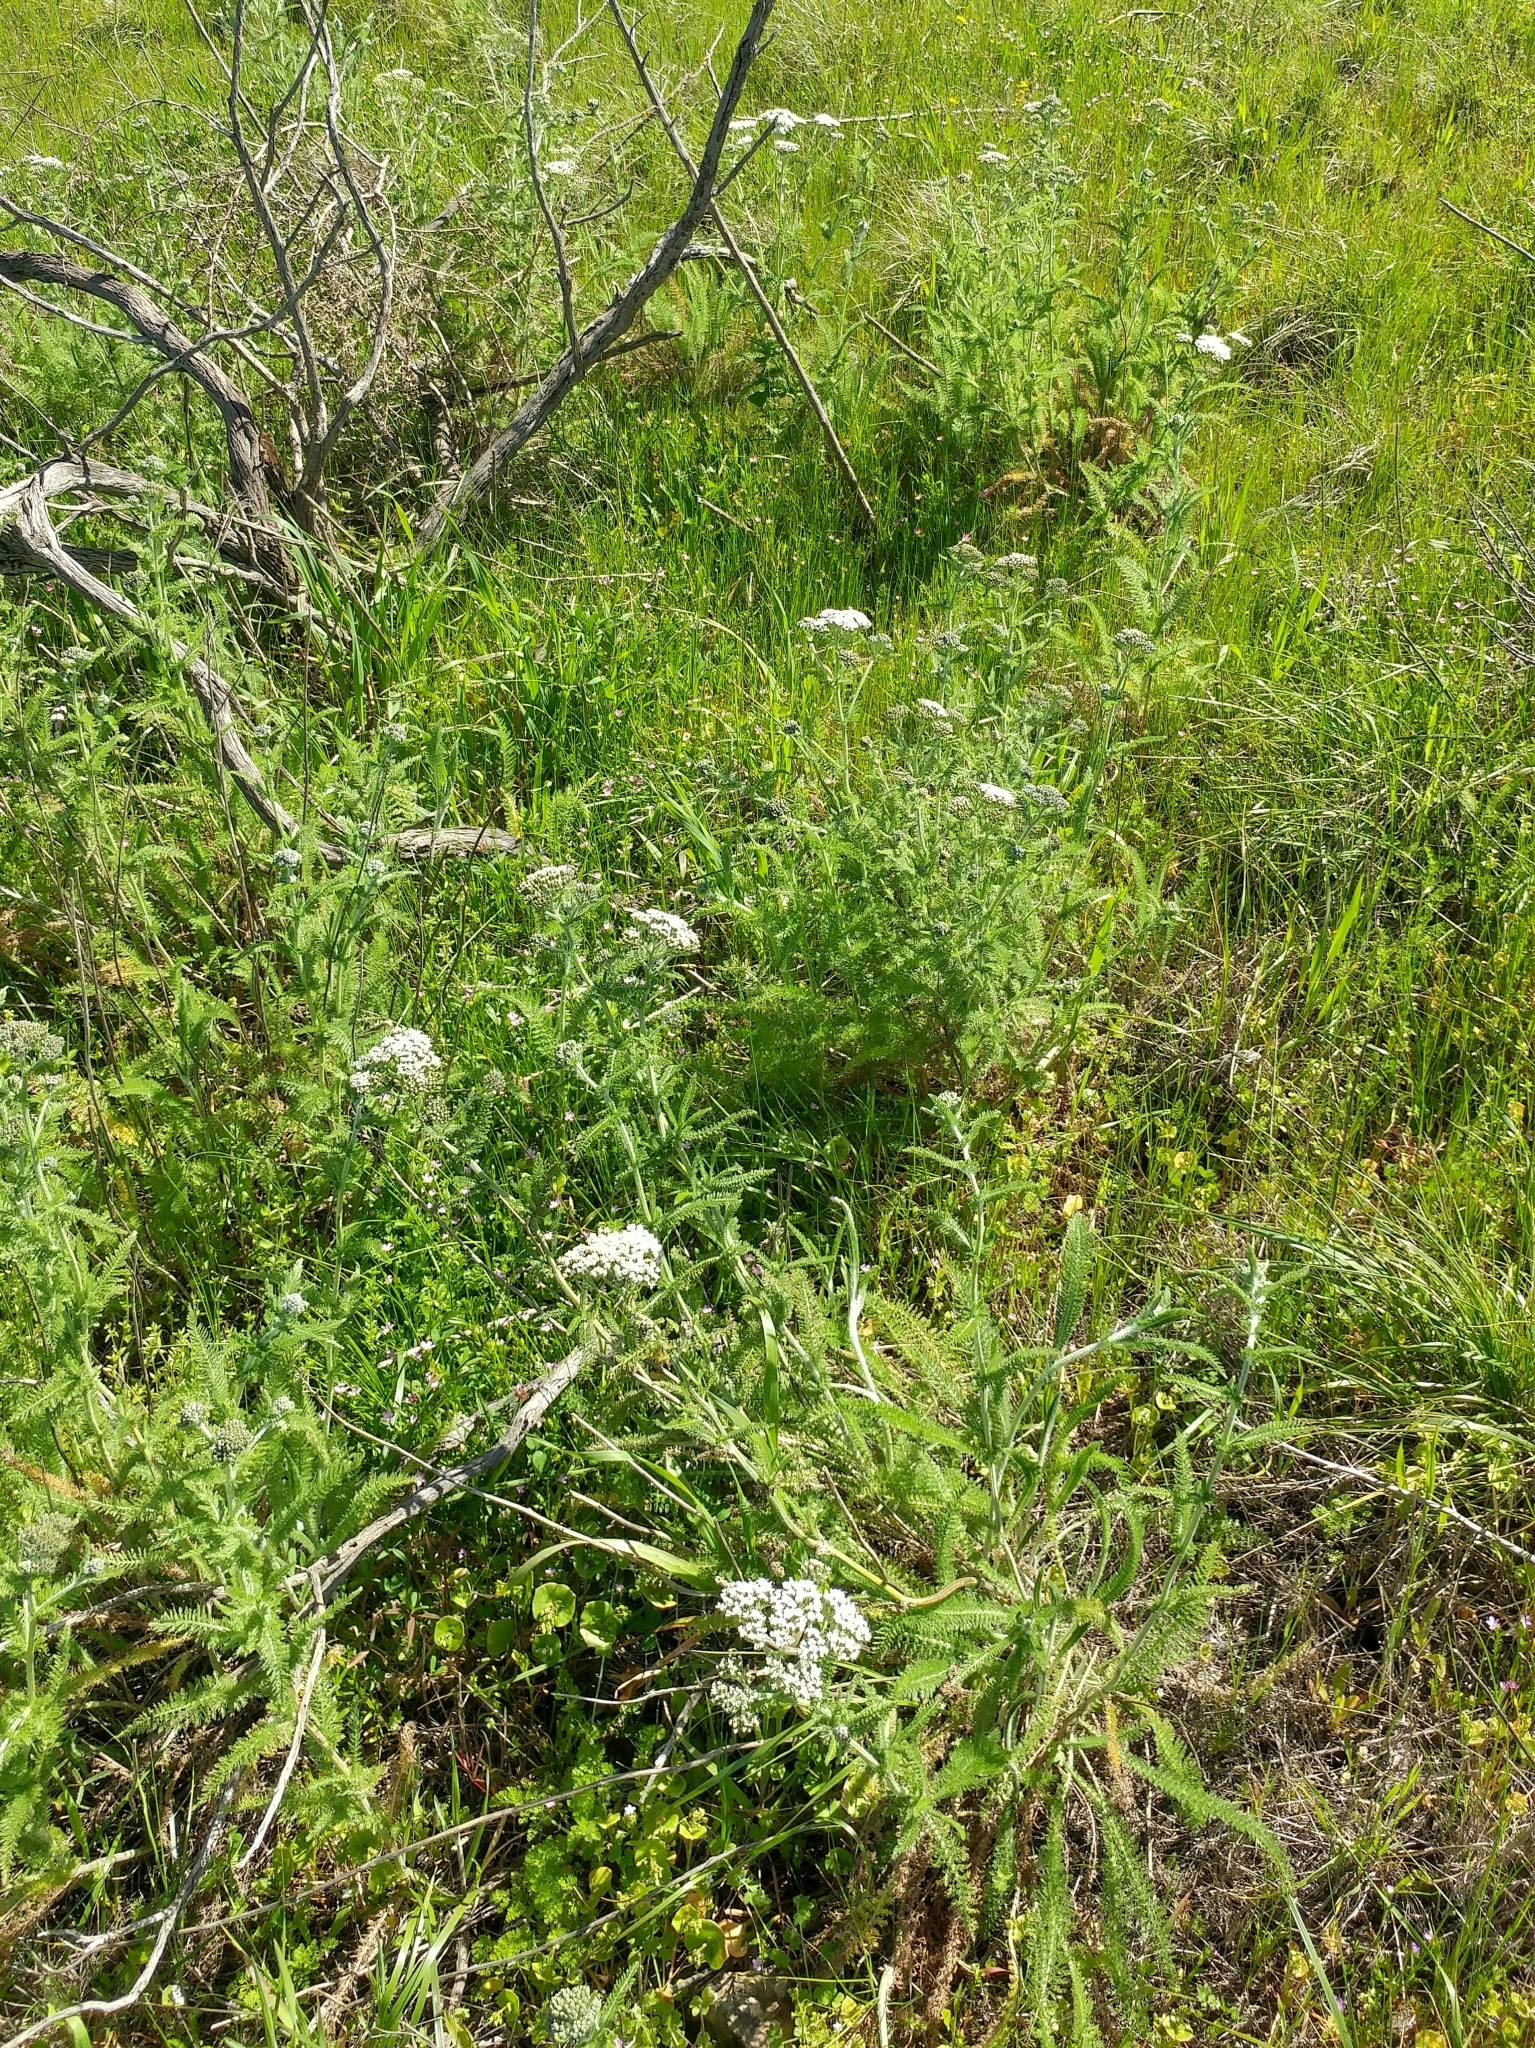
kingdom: Plantae
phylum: Tracheophyta
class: Magnoliopsida
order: Asterales
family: Asteraceae
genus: Achillea
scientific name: Achillea millefolium
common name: Yarrow
